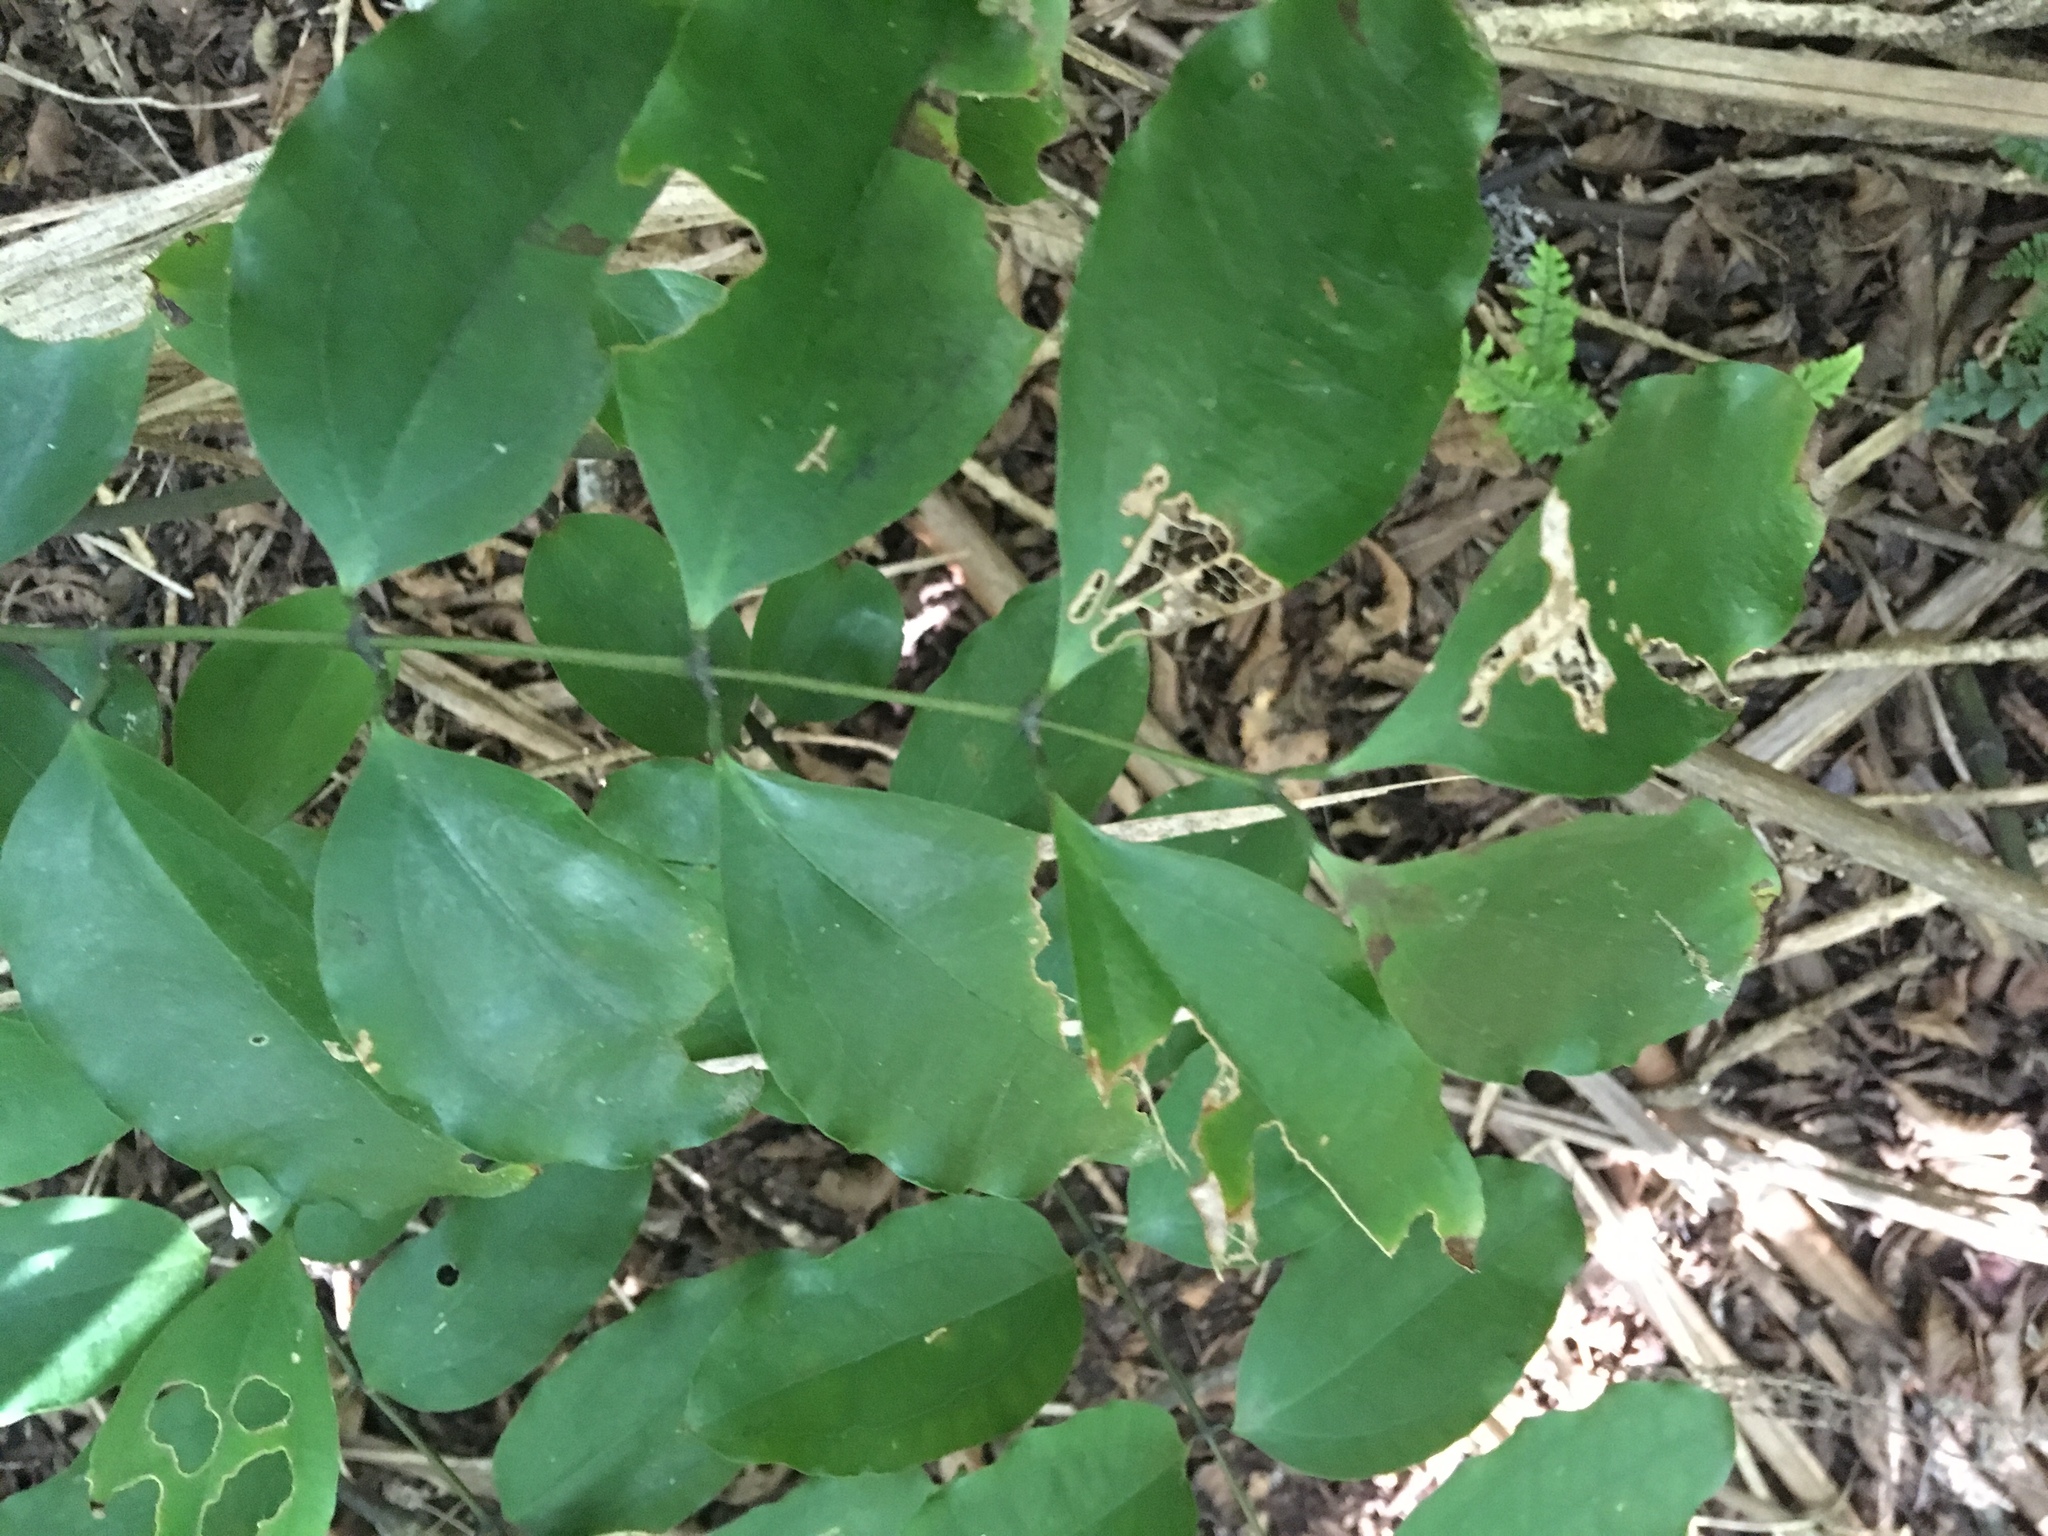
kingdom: Plantae
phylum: Tracheophyta
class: Liliopsida
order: Liliales
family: Ripogonaceae
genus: Ripogonum
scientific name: Ripogonum scandens
